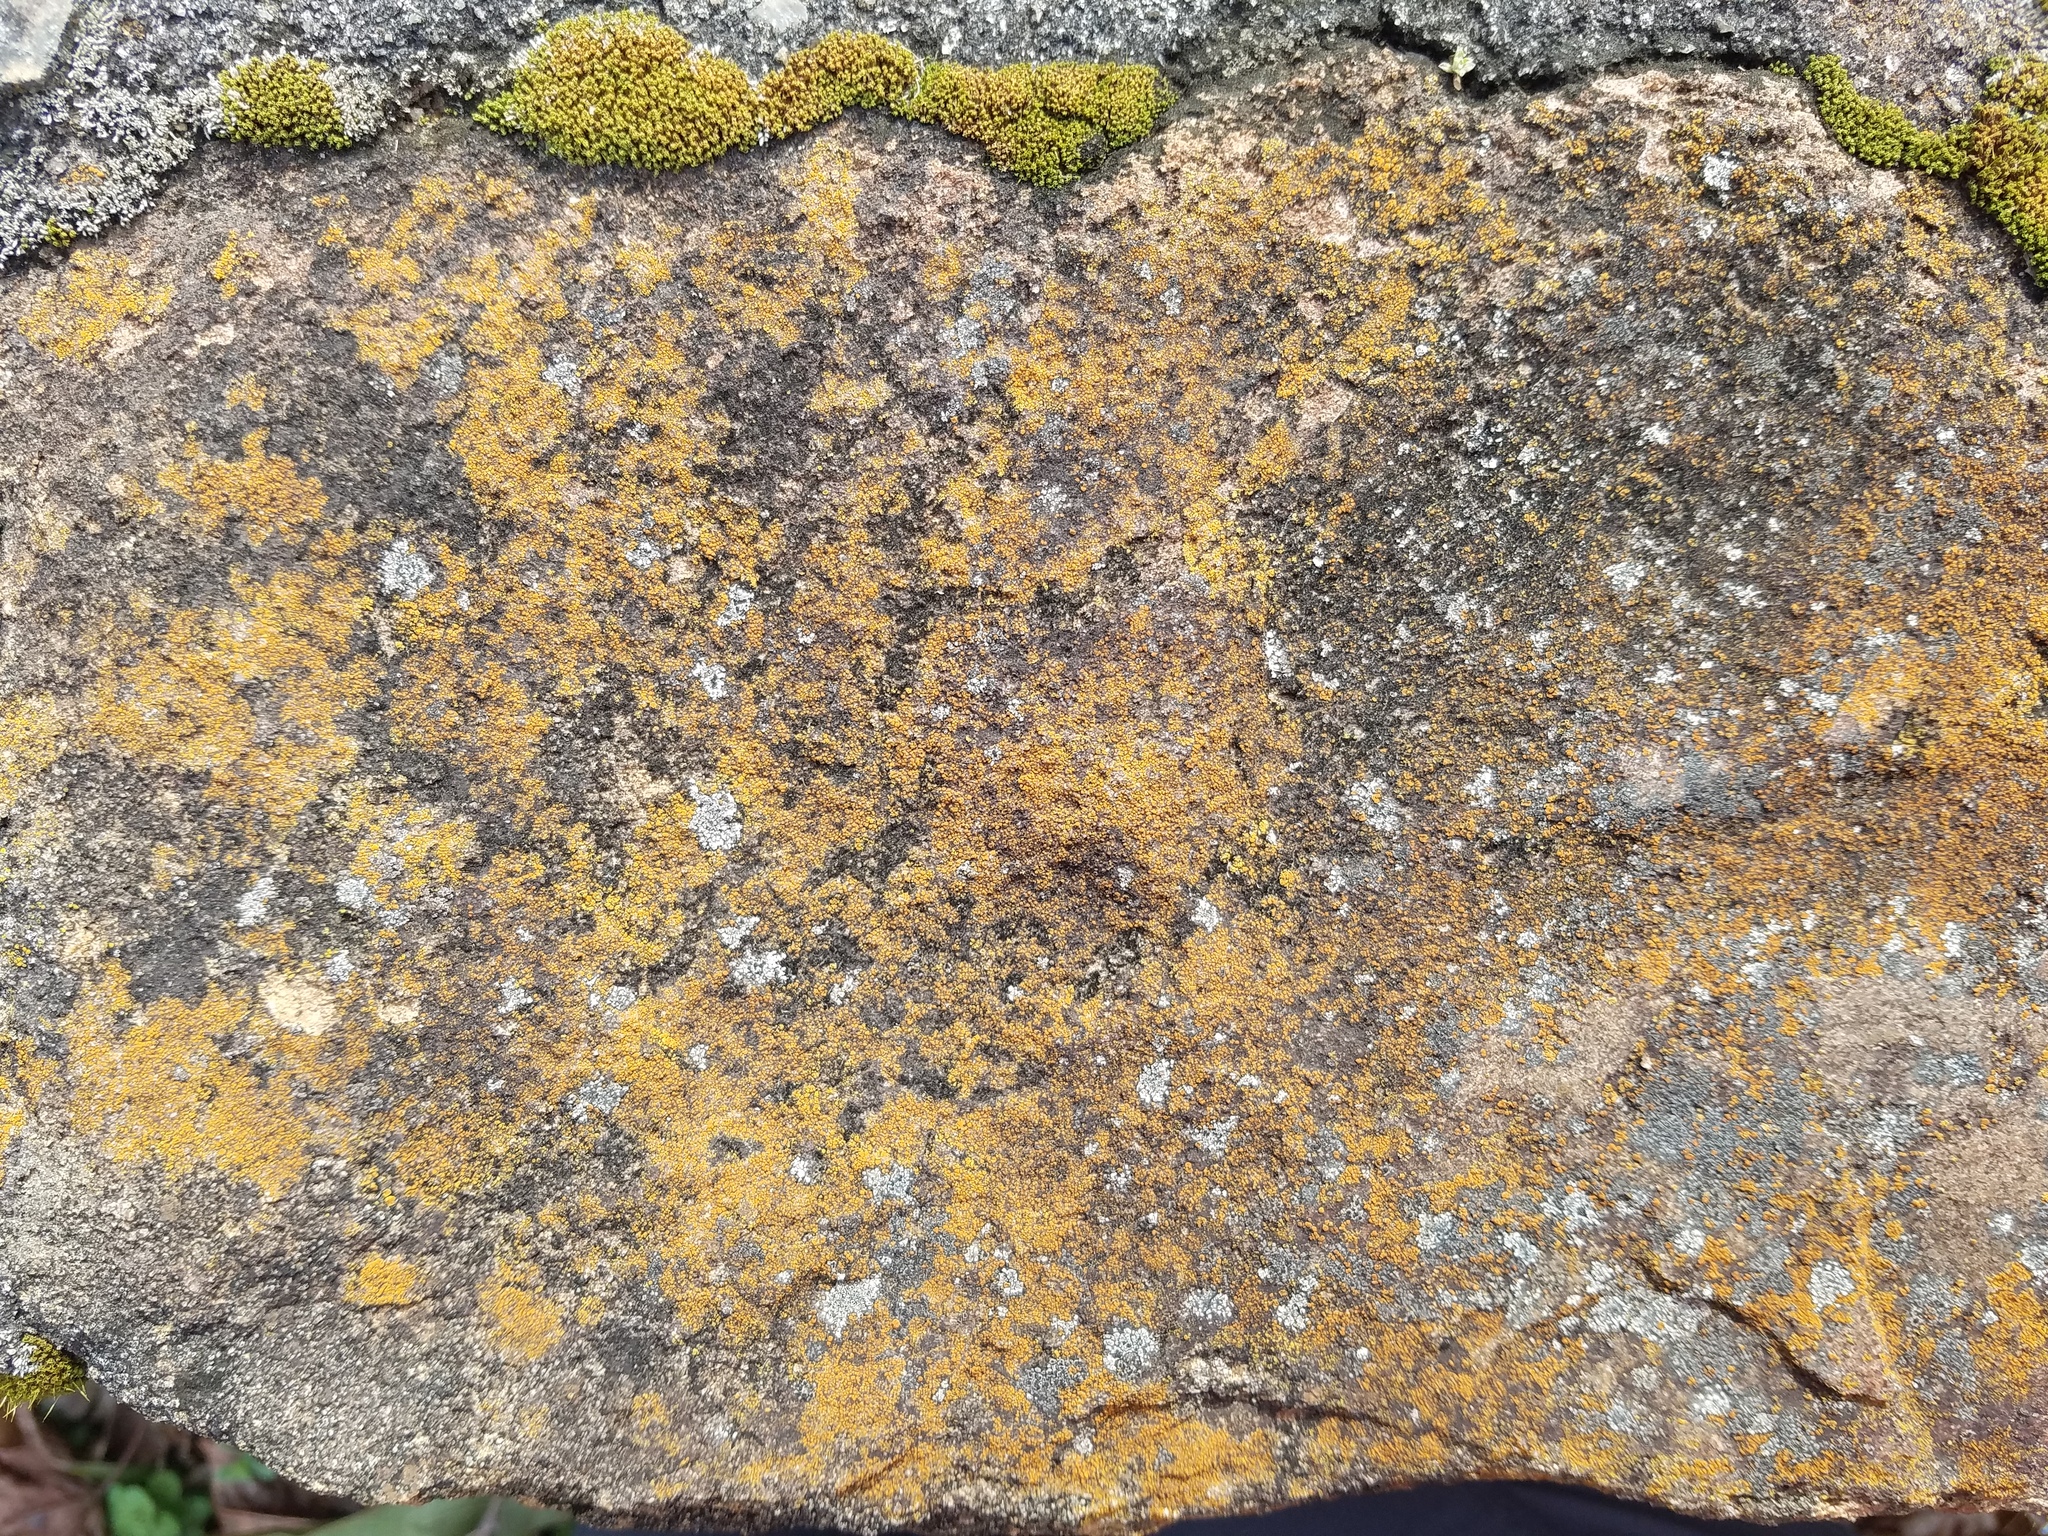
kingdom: Fungi
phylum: Ascomycota
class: Lecanoromycetes
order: Teloschistales
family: Teloschistaceae
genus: Xanthocarpia
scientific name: Xanthocarpia feracissima
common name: Sidewalk firedot
